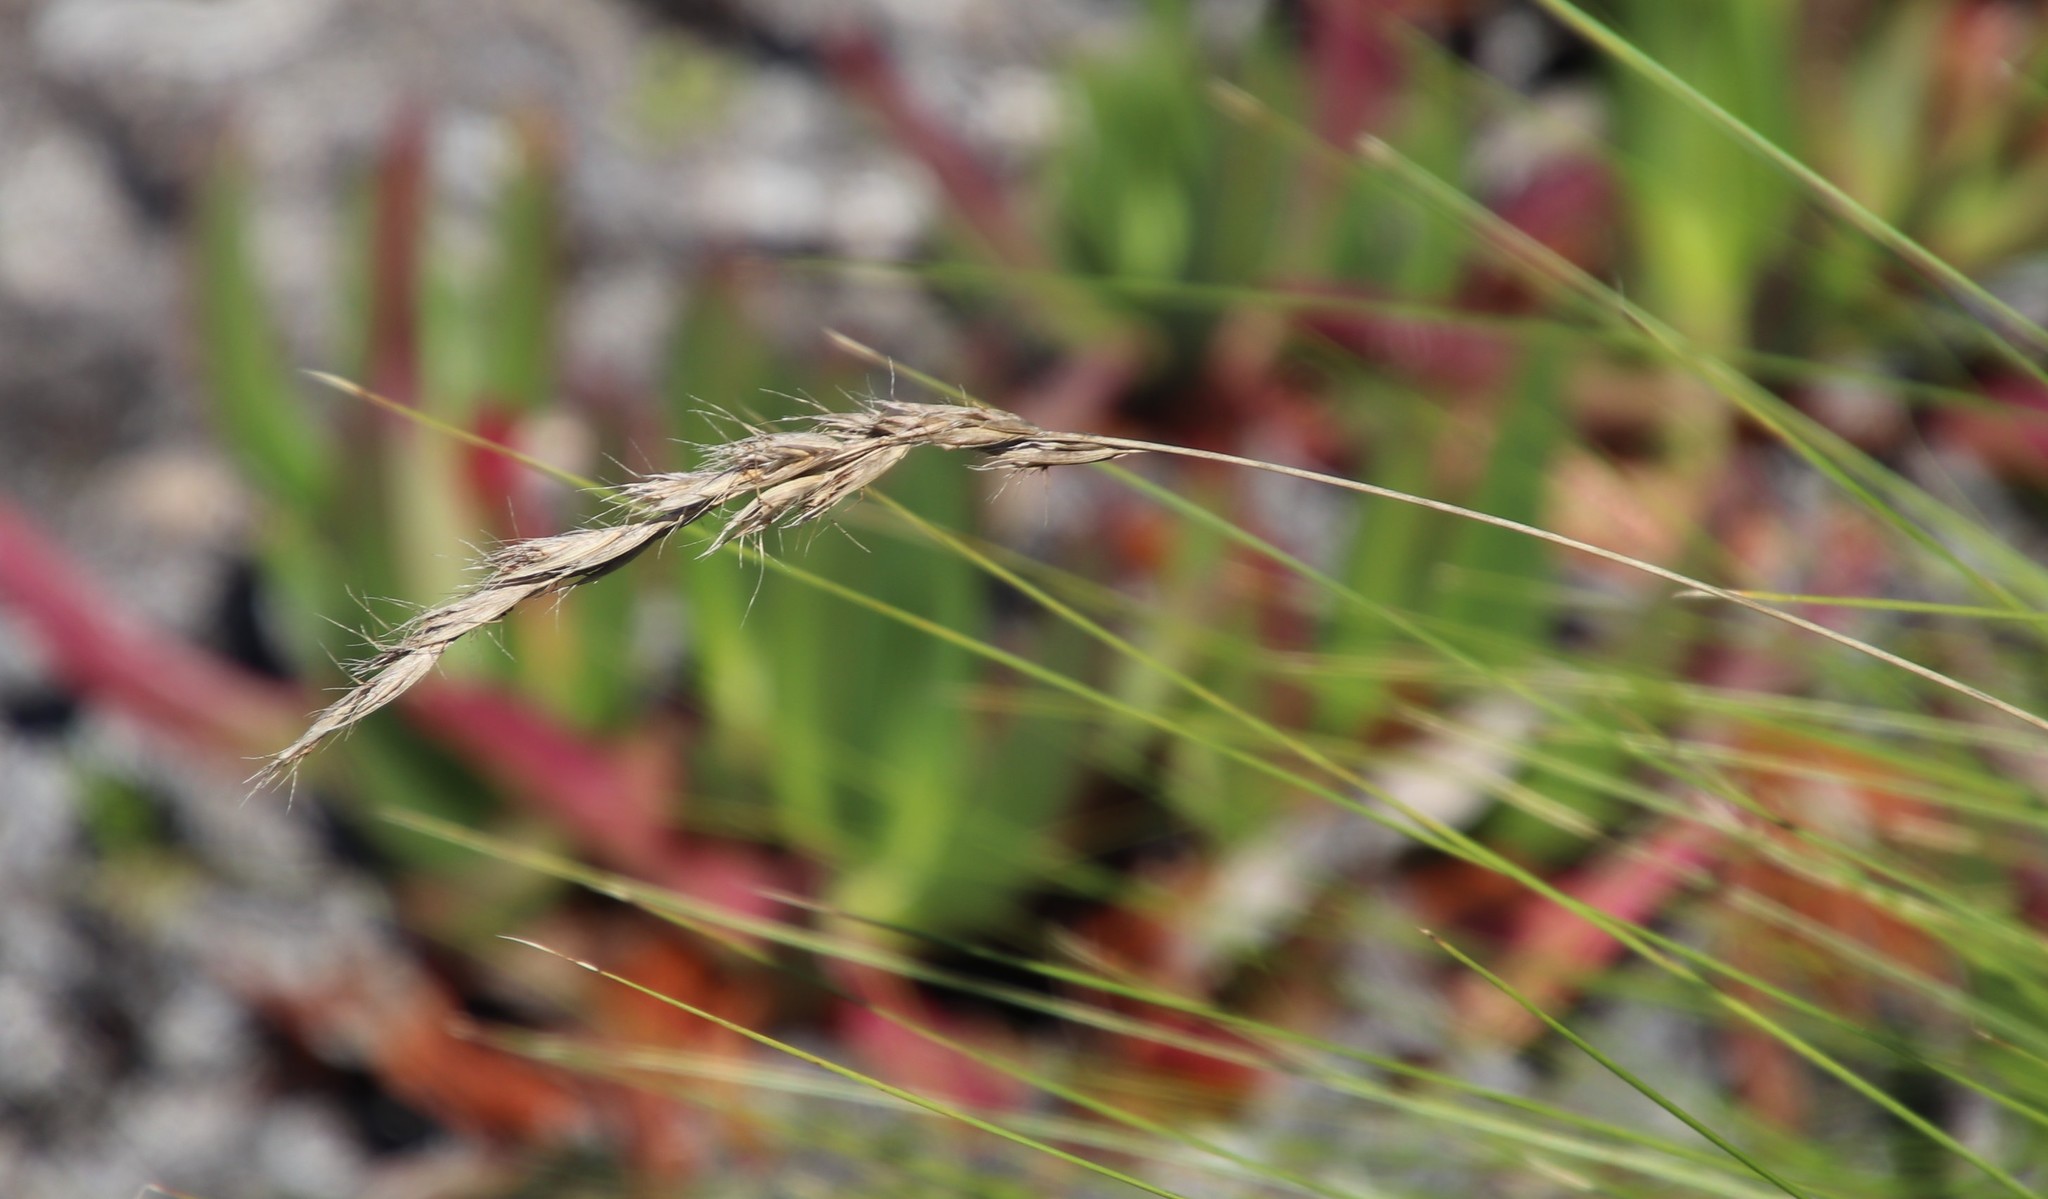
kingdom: Plantae
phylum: Tracheophyta
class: Liliopsida
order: Poales
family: Poaceae
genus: Tenaxia
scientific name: Tenaxia stricta
